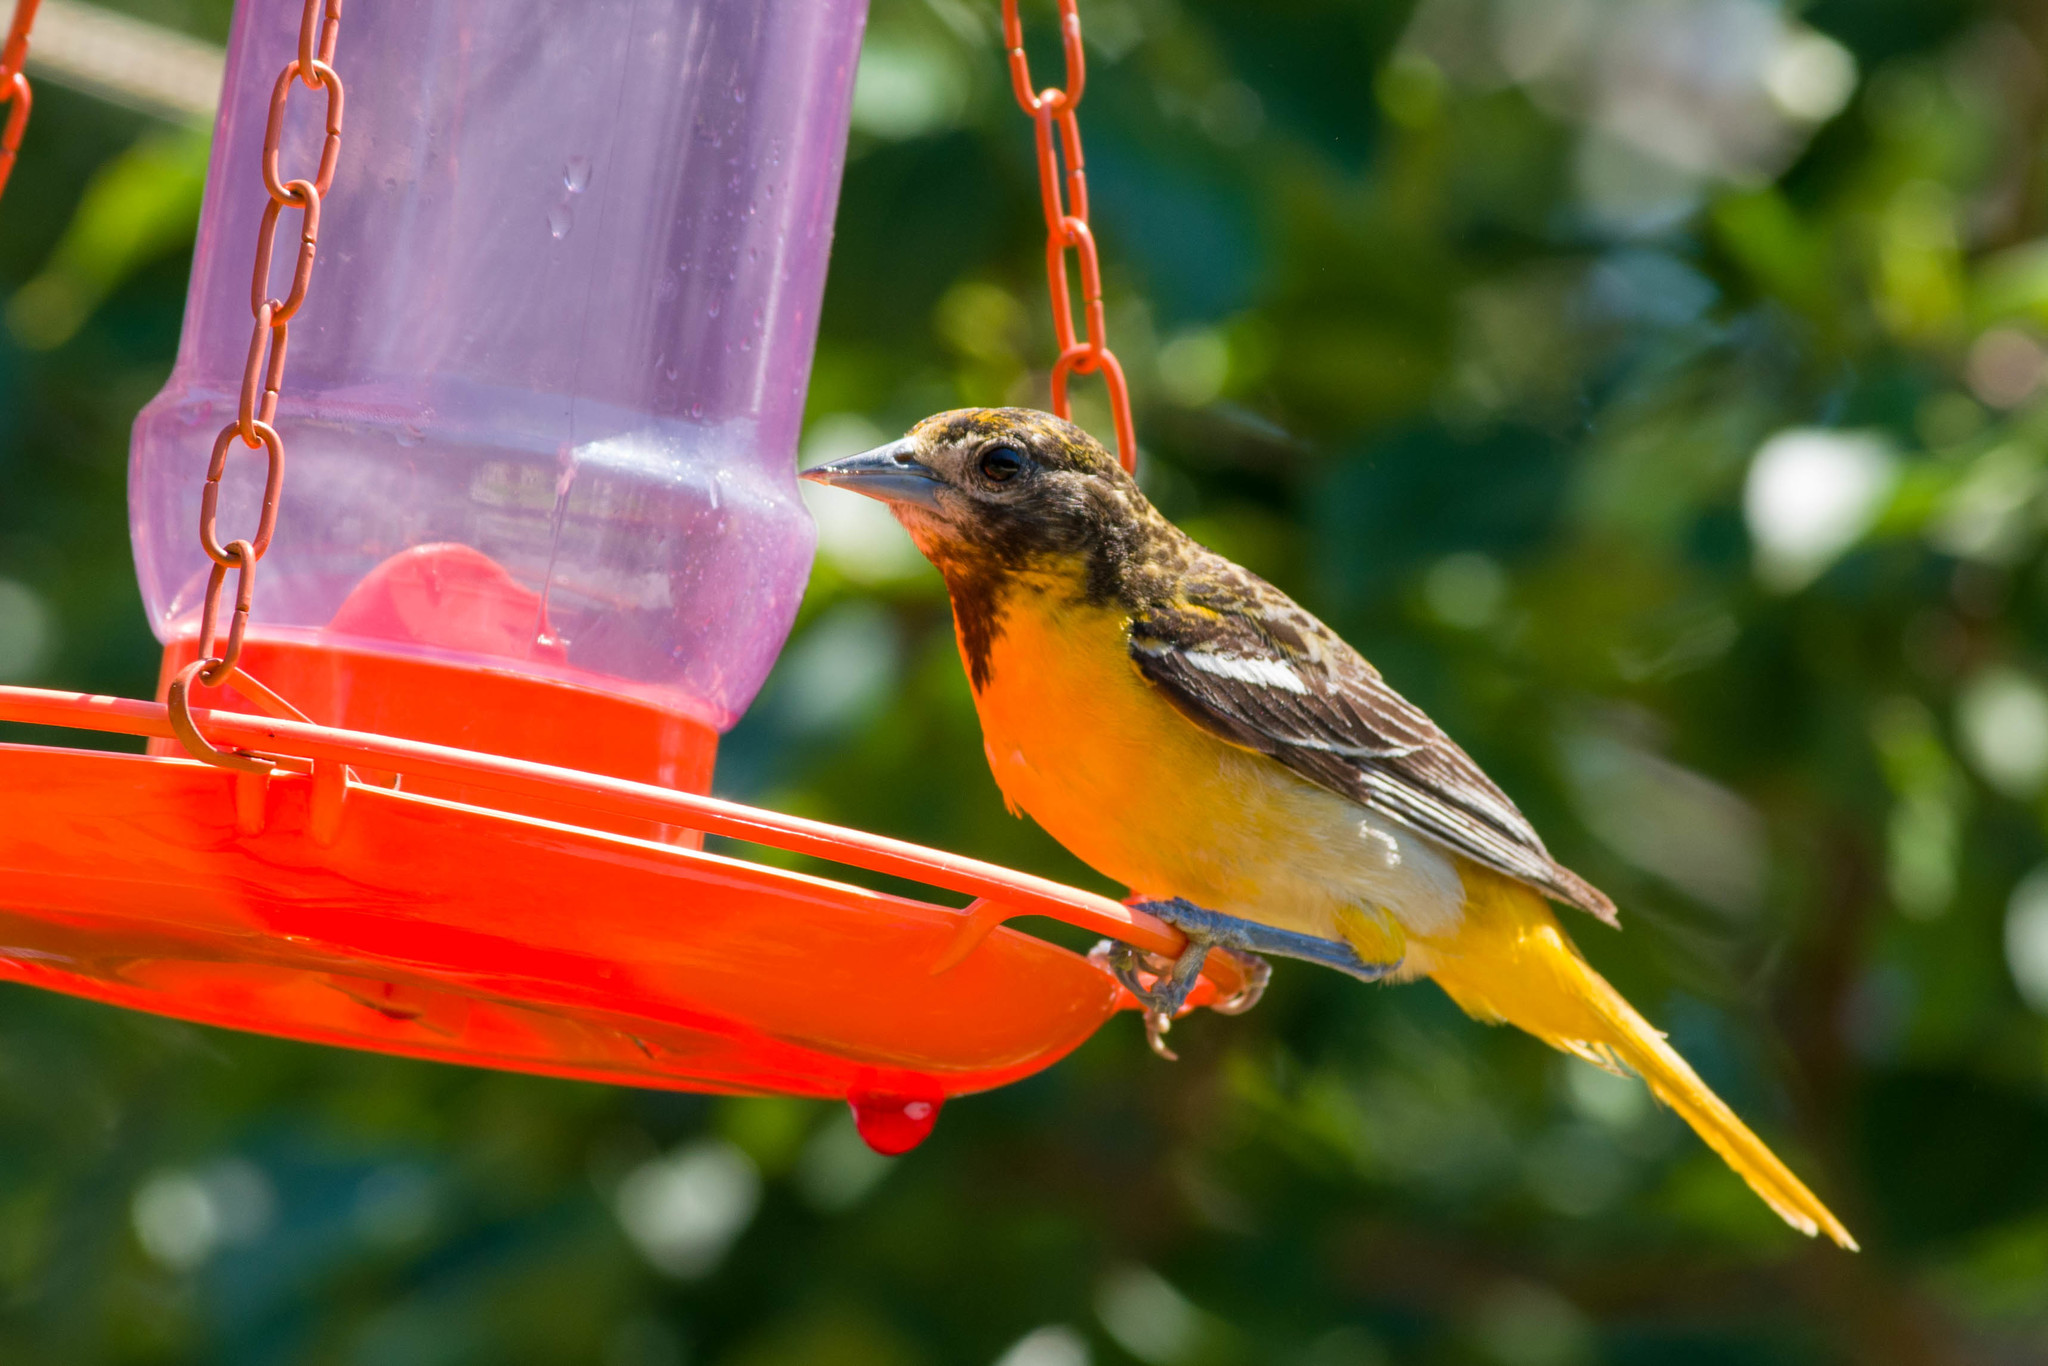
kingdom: Animalia
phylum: Chordata
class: Aves
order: Passeriformes
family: Icteridae
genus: Icterus
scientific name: Icterus galbula
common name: Baltimore oriole
